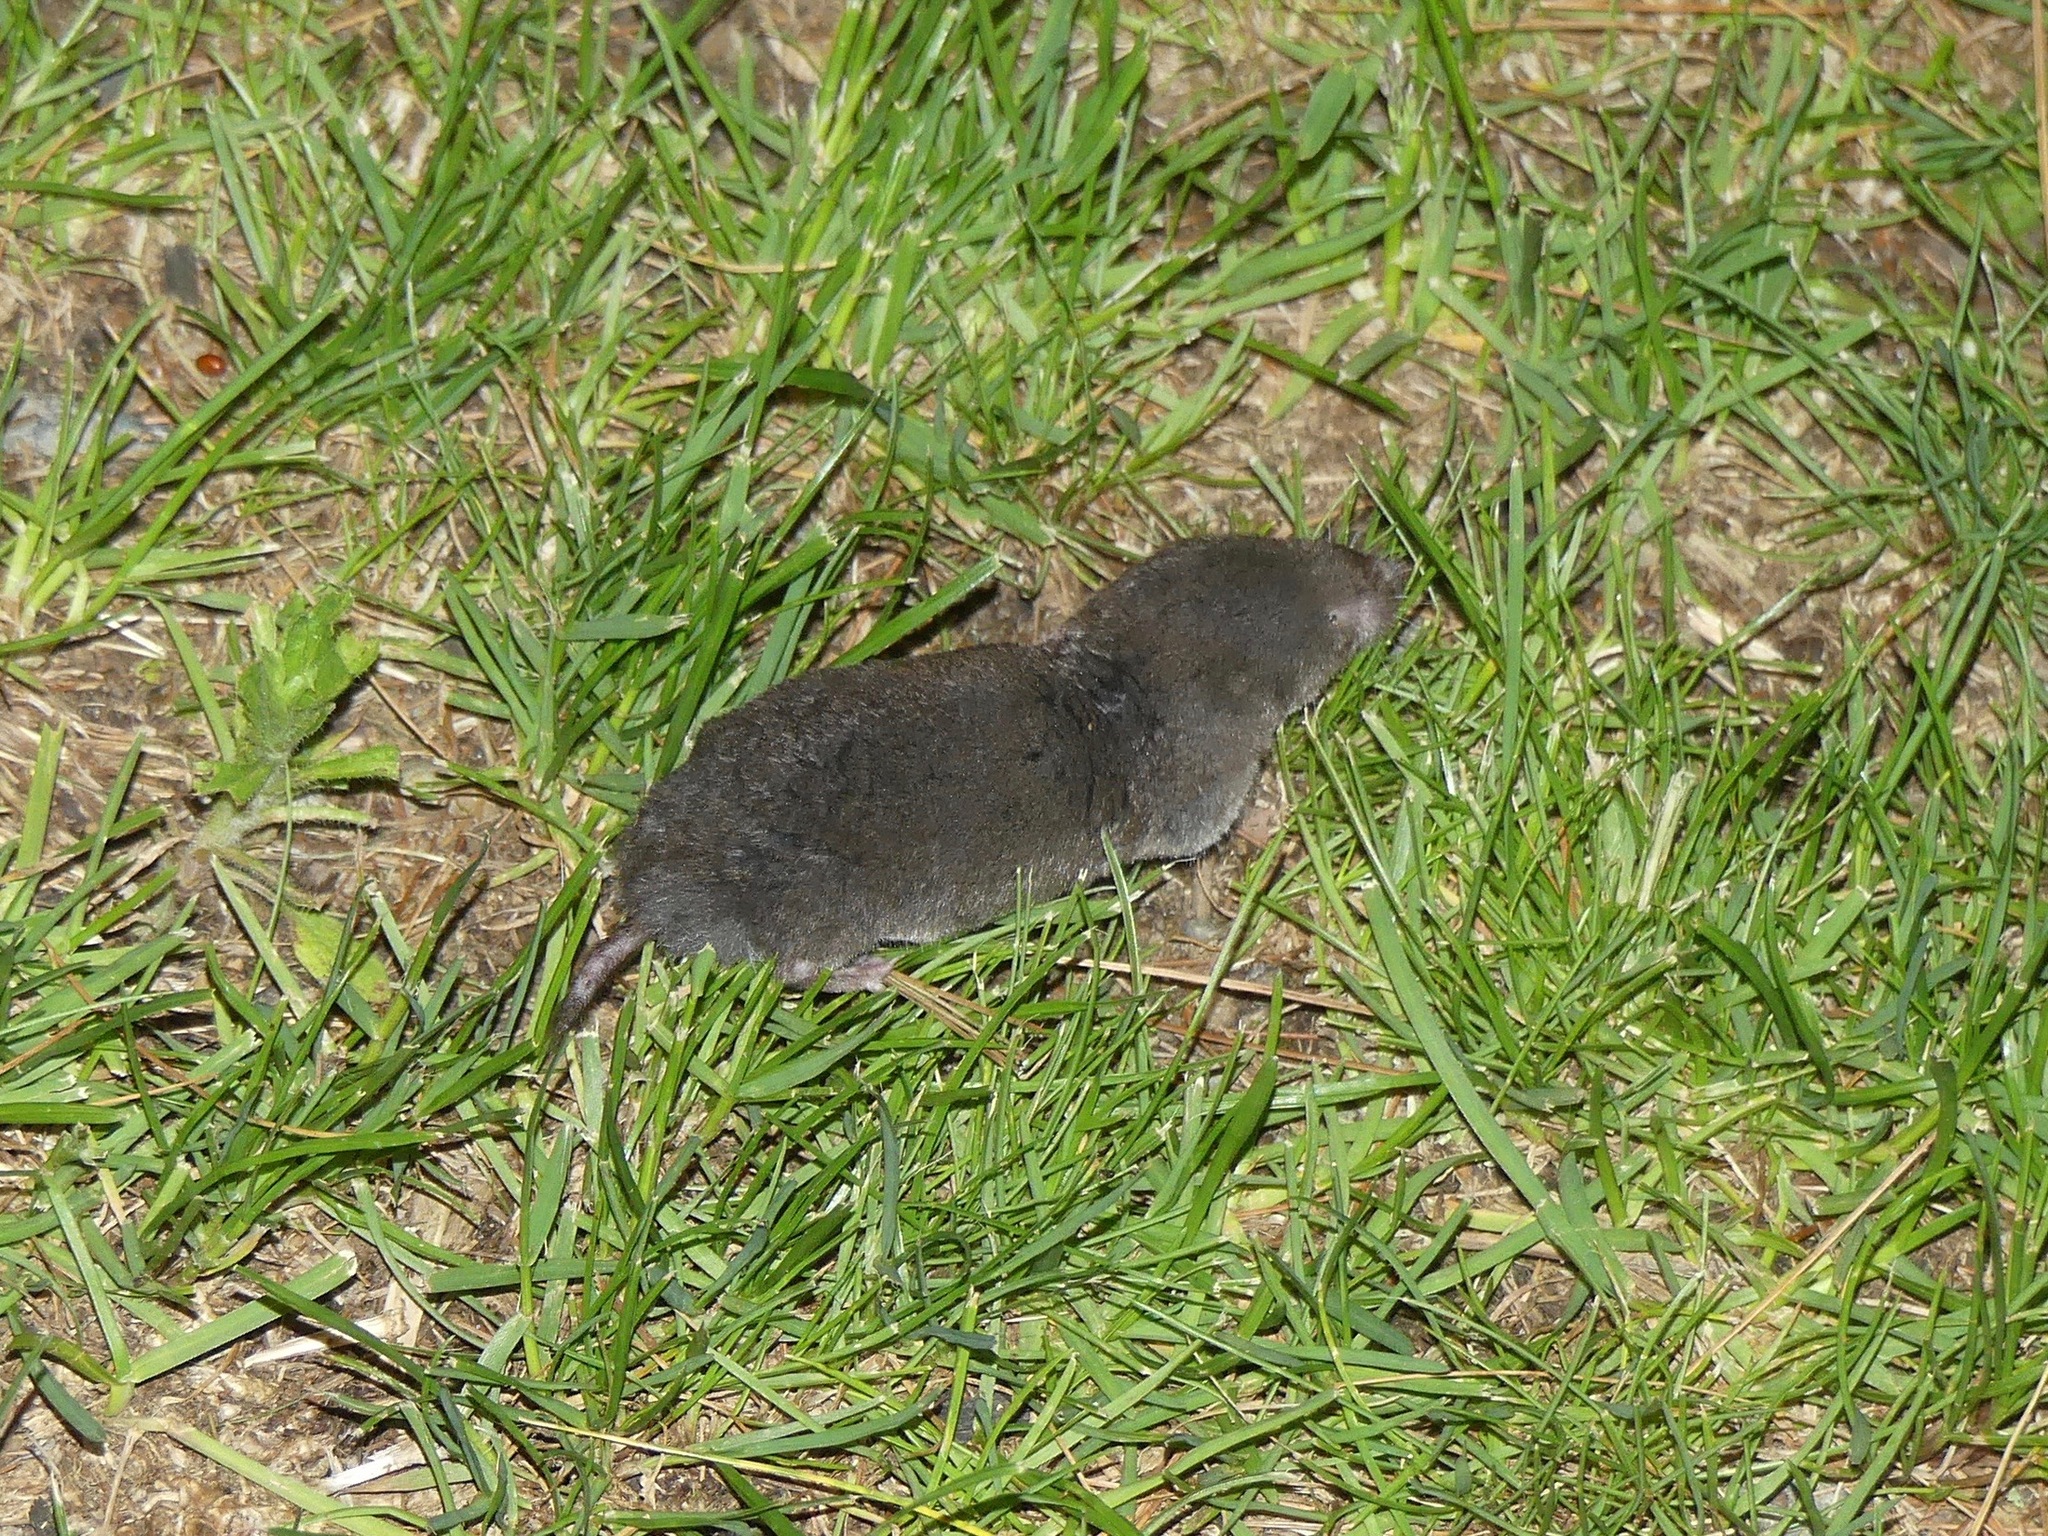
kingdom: Animalia
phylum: Chordata
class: Mammalia
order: Soricomorpha
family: Soricidae
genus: Blarina
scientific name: Blarina brevicauda
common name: Northern short-tailed shrew
